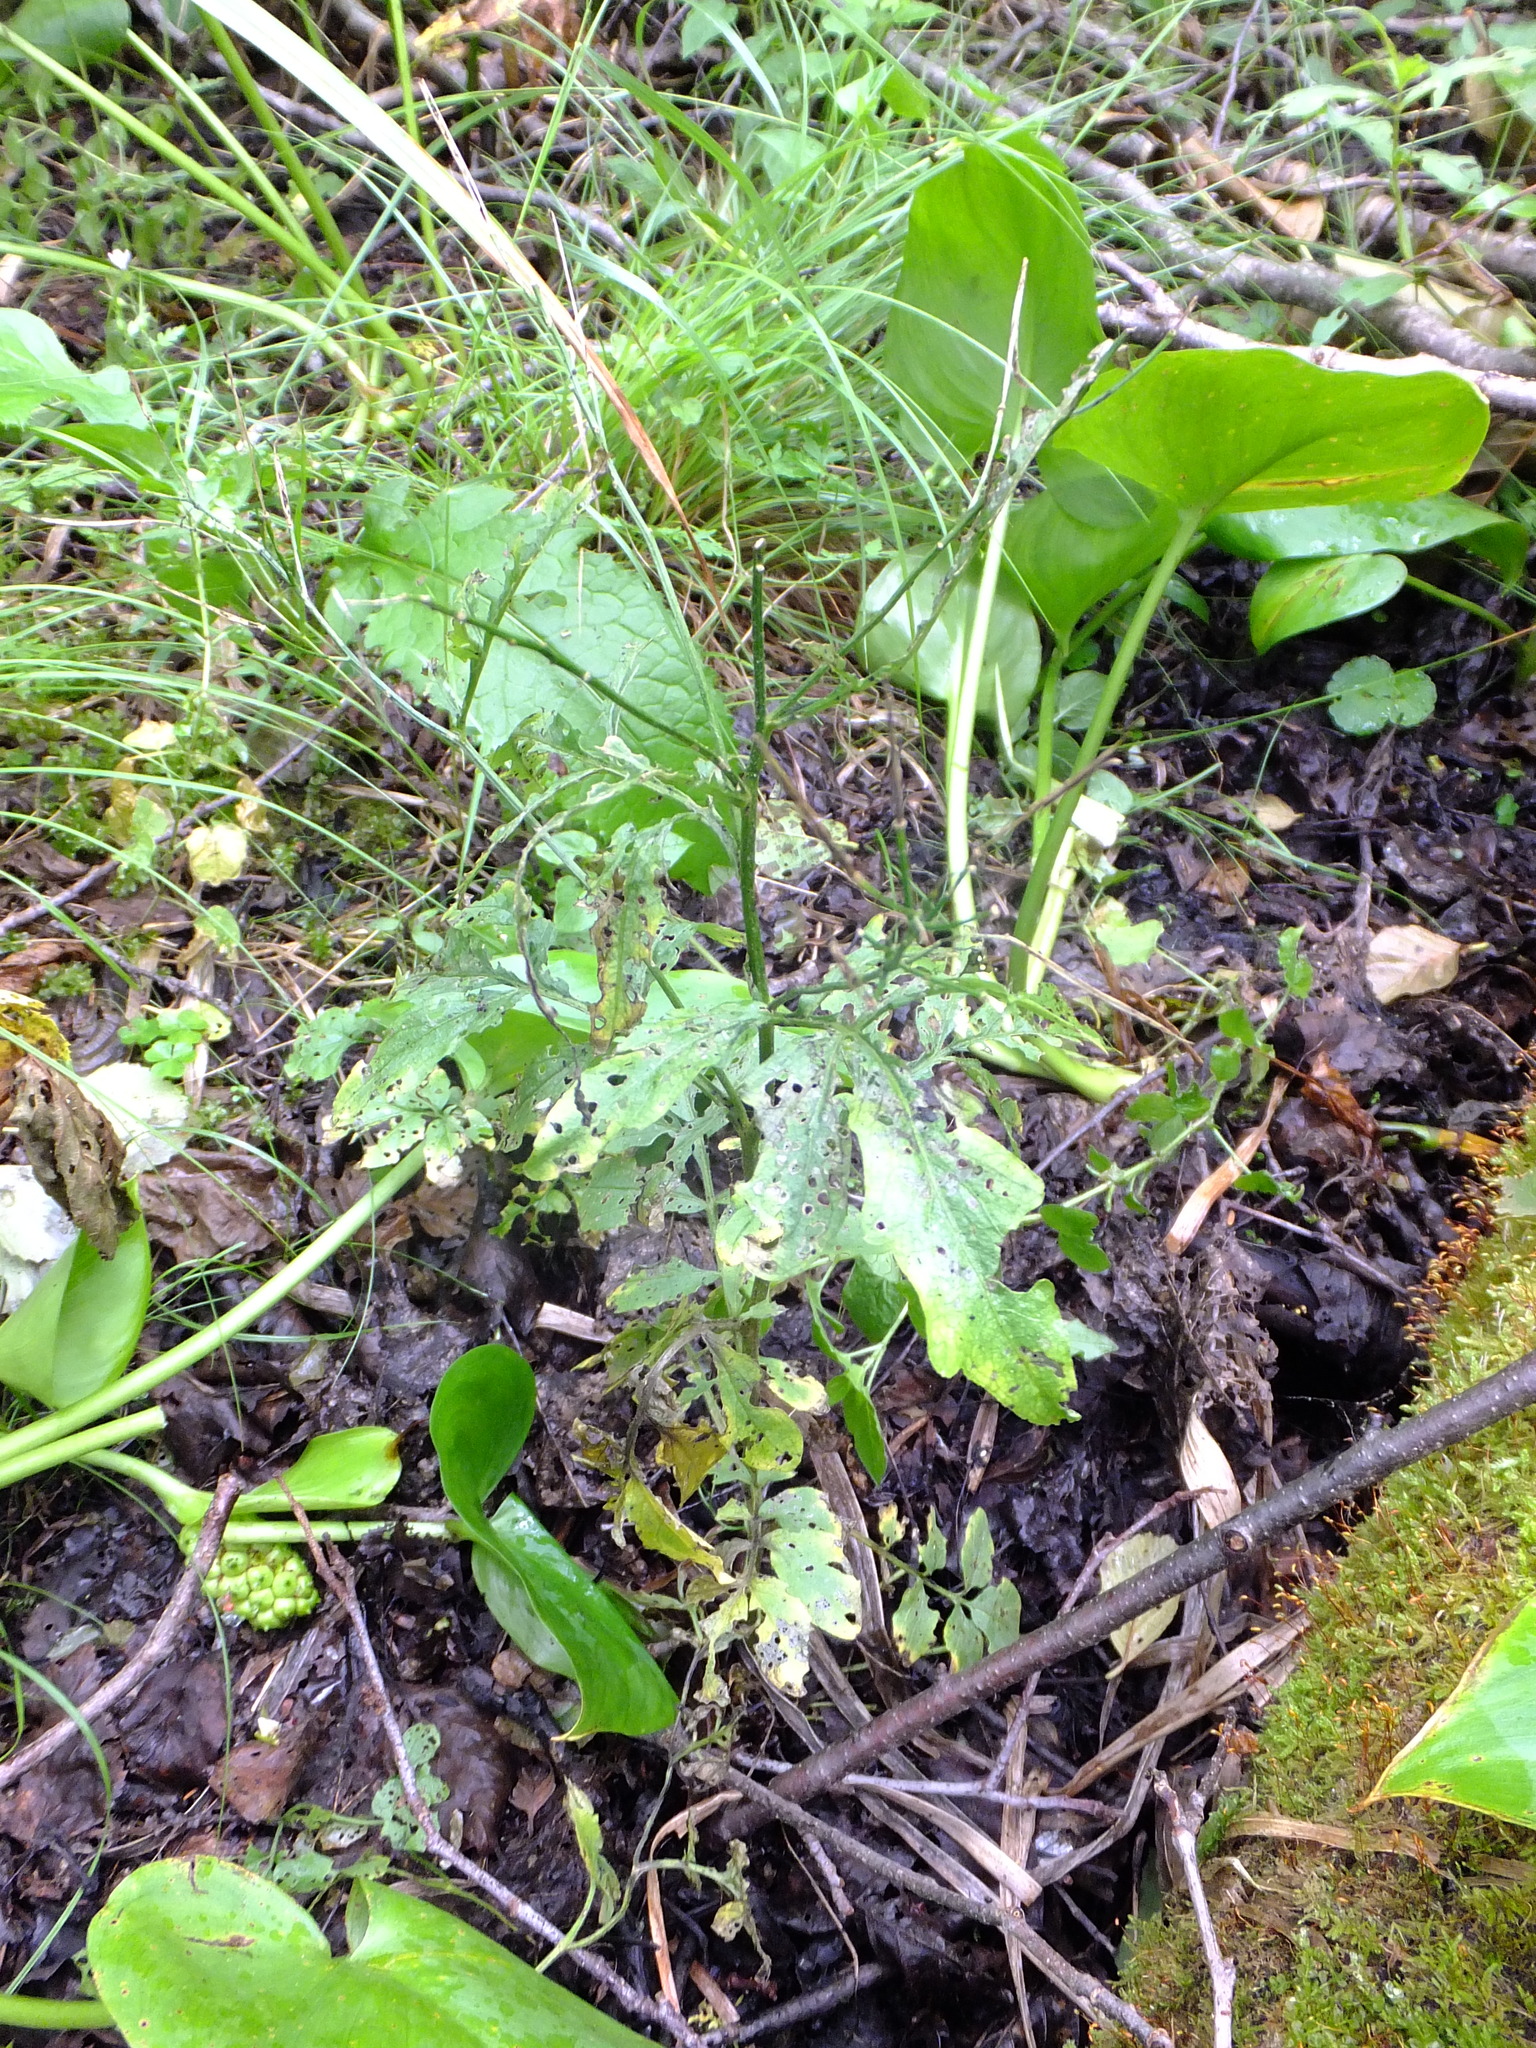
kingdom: Plantae
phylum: Tracheophyta
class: Magnoliopsida
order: Brassicales
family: Brassicaceae
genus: Cardamine
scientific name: Cardamine amara
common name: Large bitter-cress
